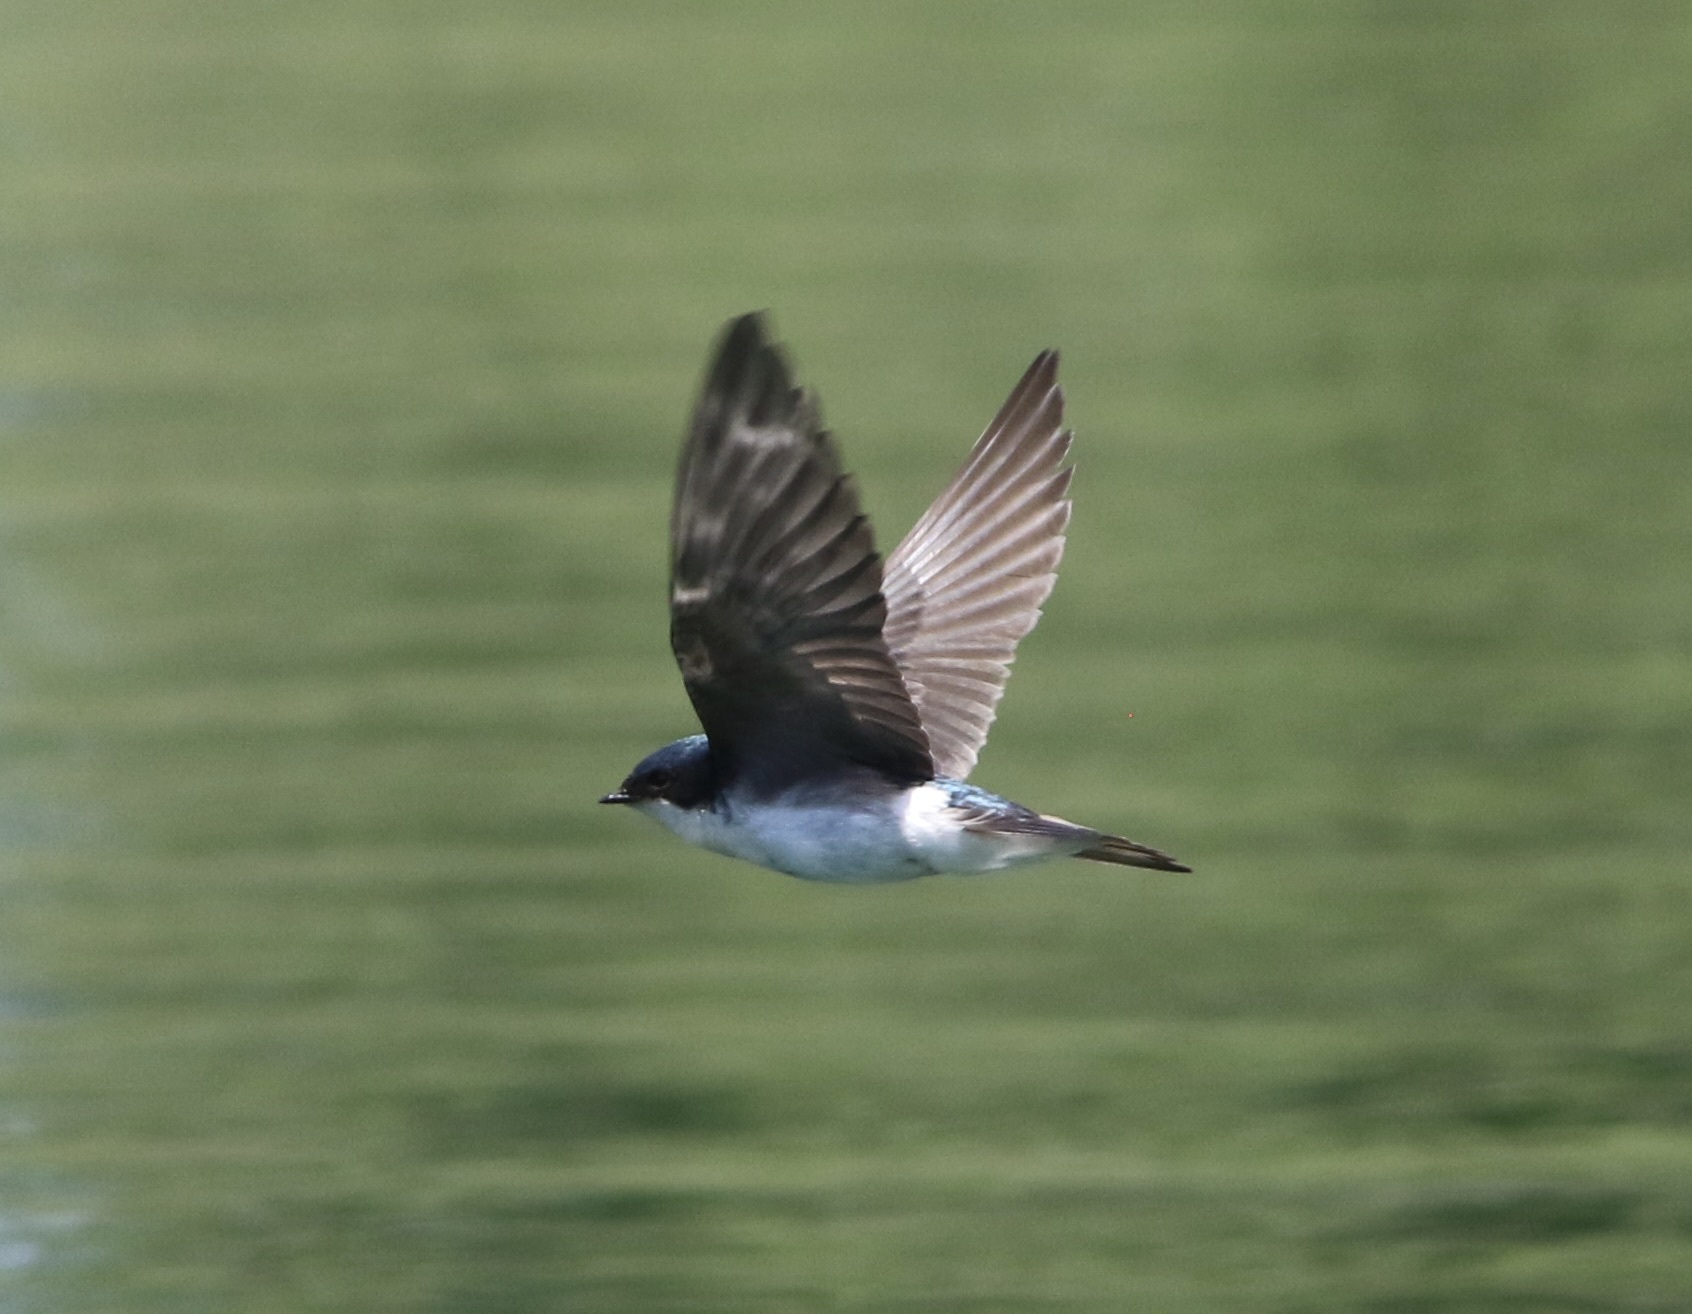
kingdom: Animalia
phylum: Chordata
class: Aves
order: Passeriformes
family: Hirundinidae
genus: Tachycineta
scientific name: Tachycineta bicolor
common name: Tree swallow
